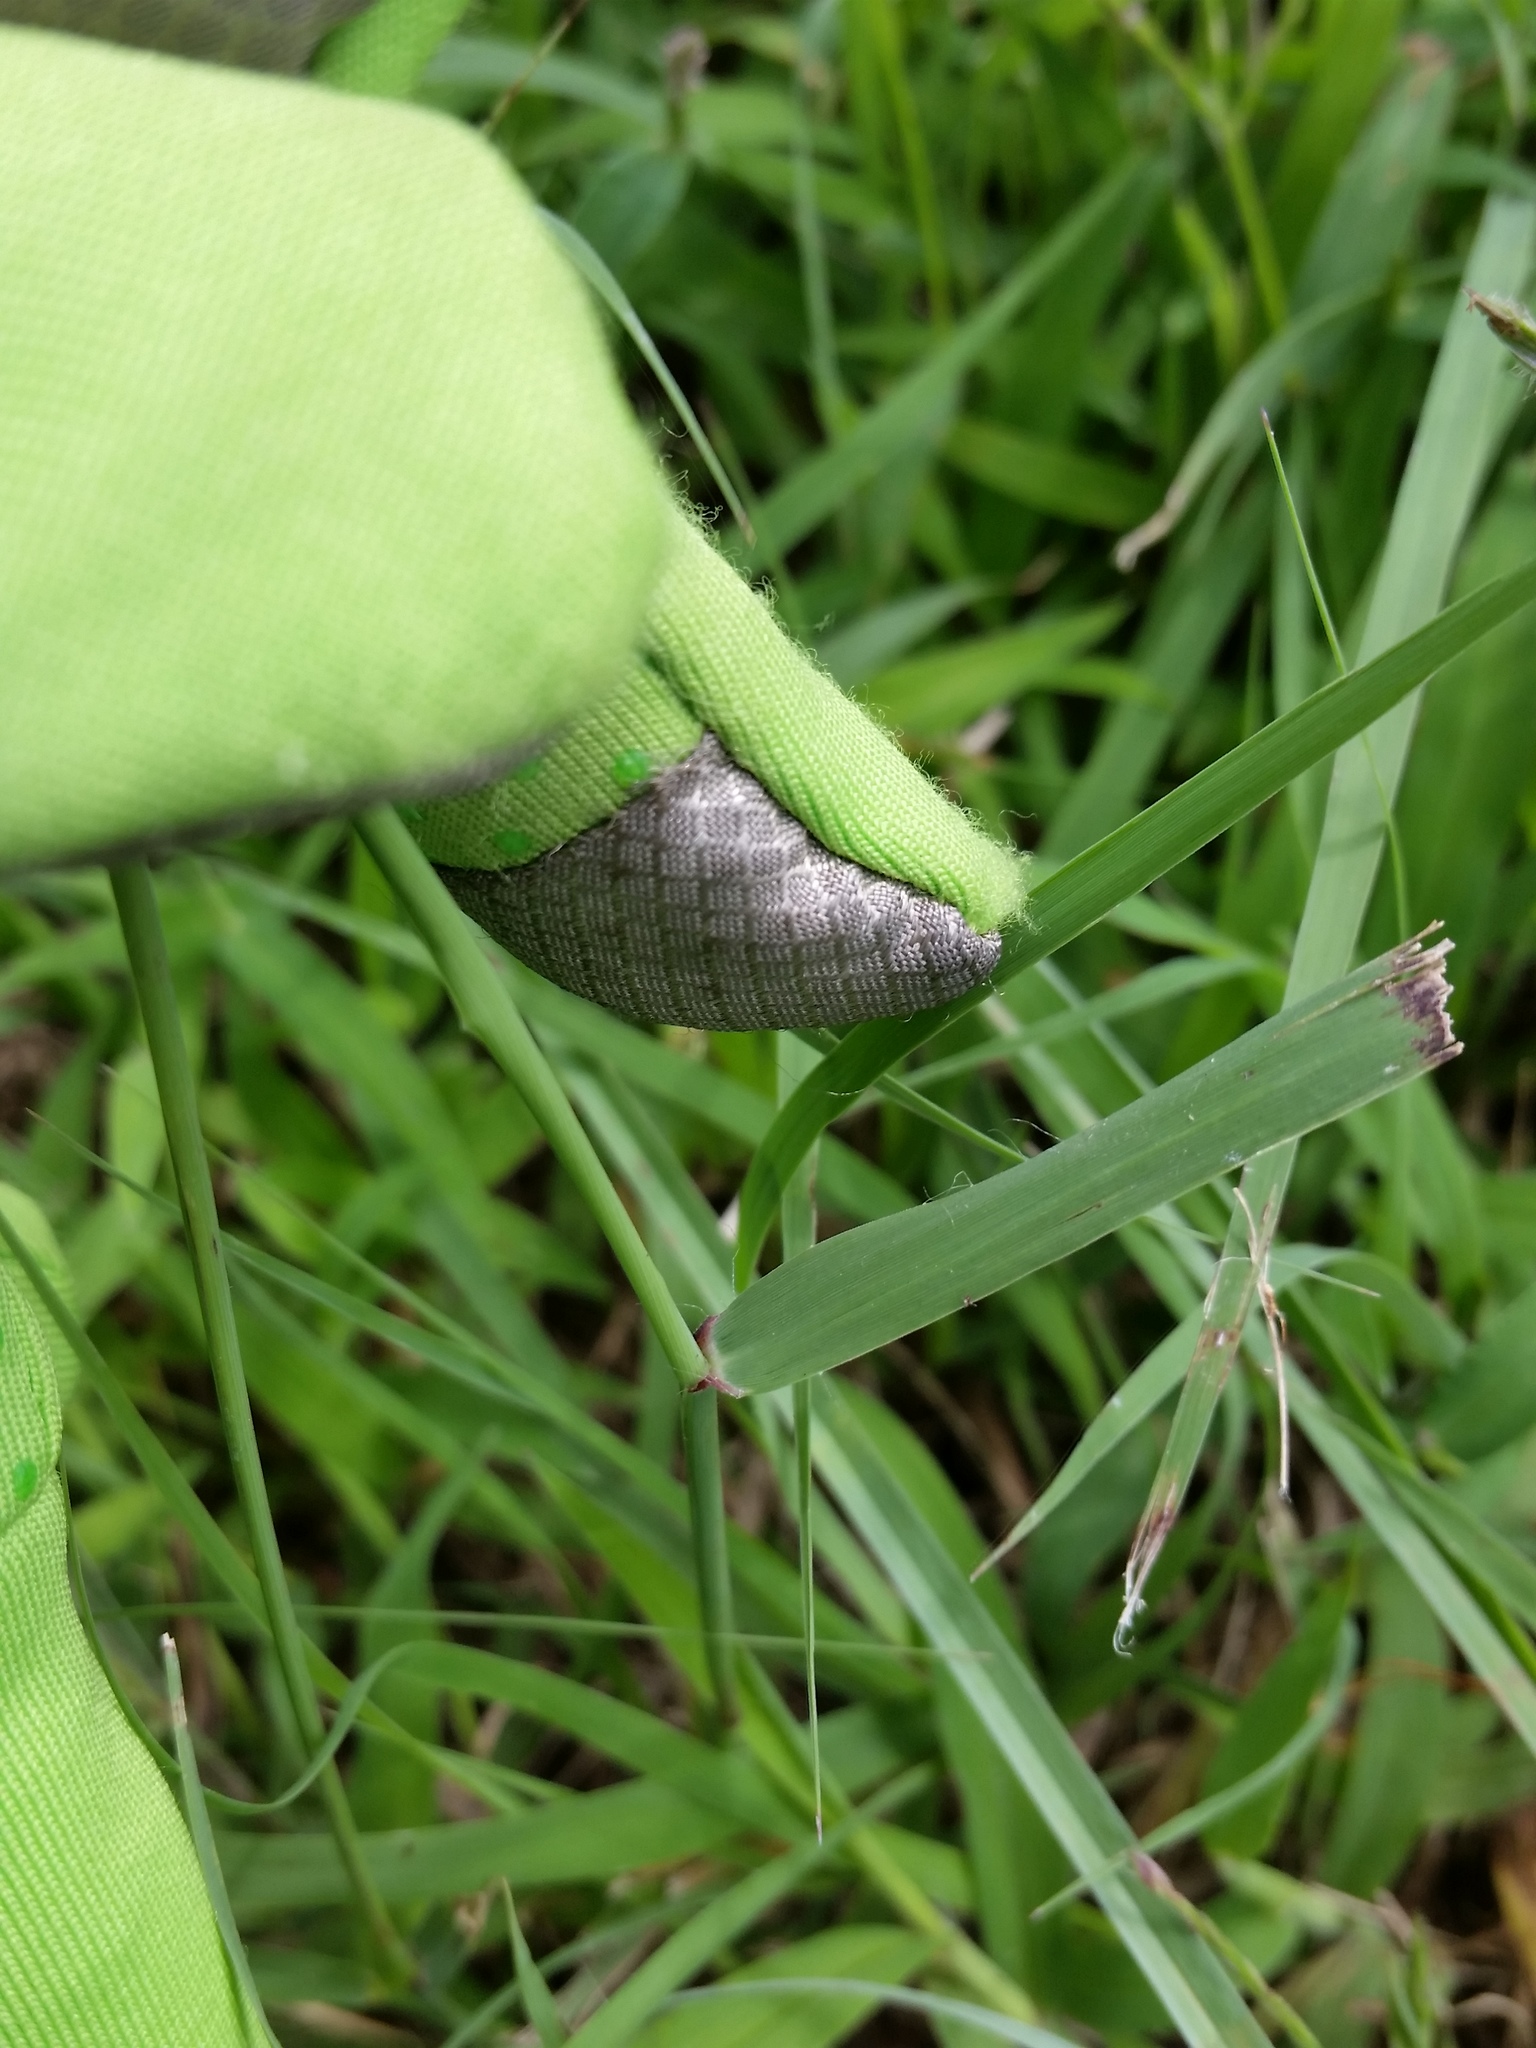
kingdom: Plantae
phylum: Tracheophyta
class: Liliopsida
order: Poales
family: Poaceae
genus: Bouteloua
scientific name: Bouteloua curtipendula
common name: Side-oats grama
